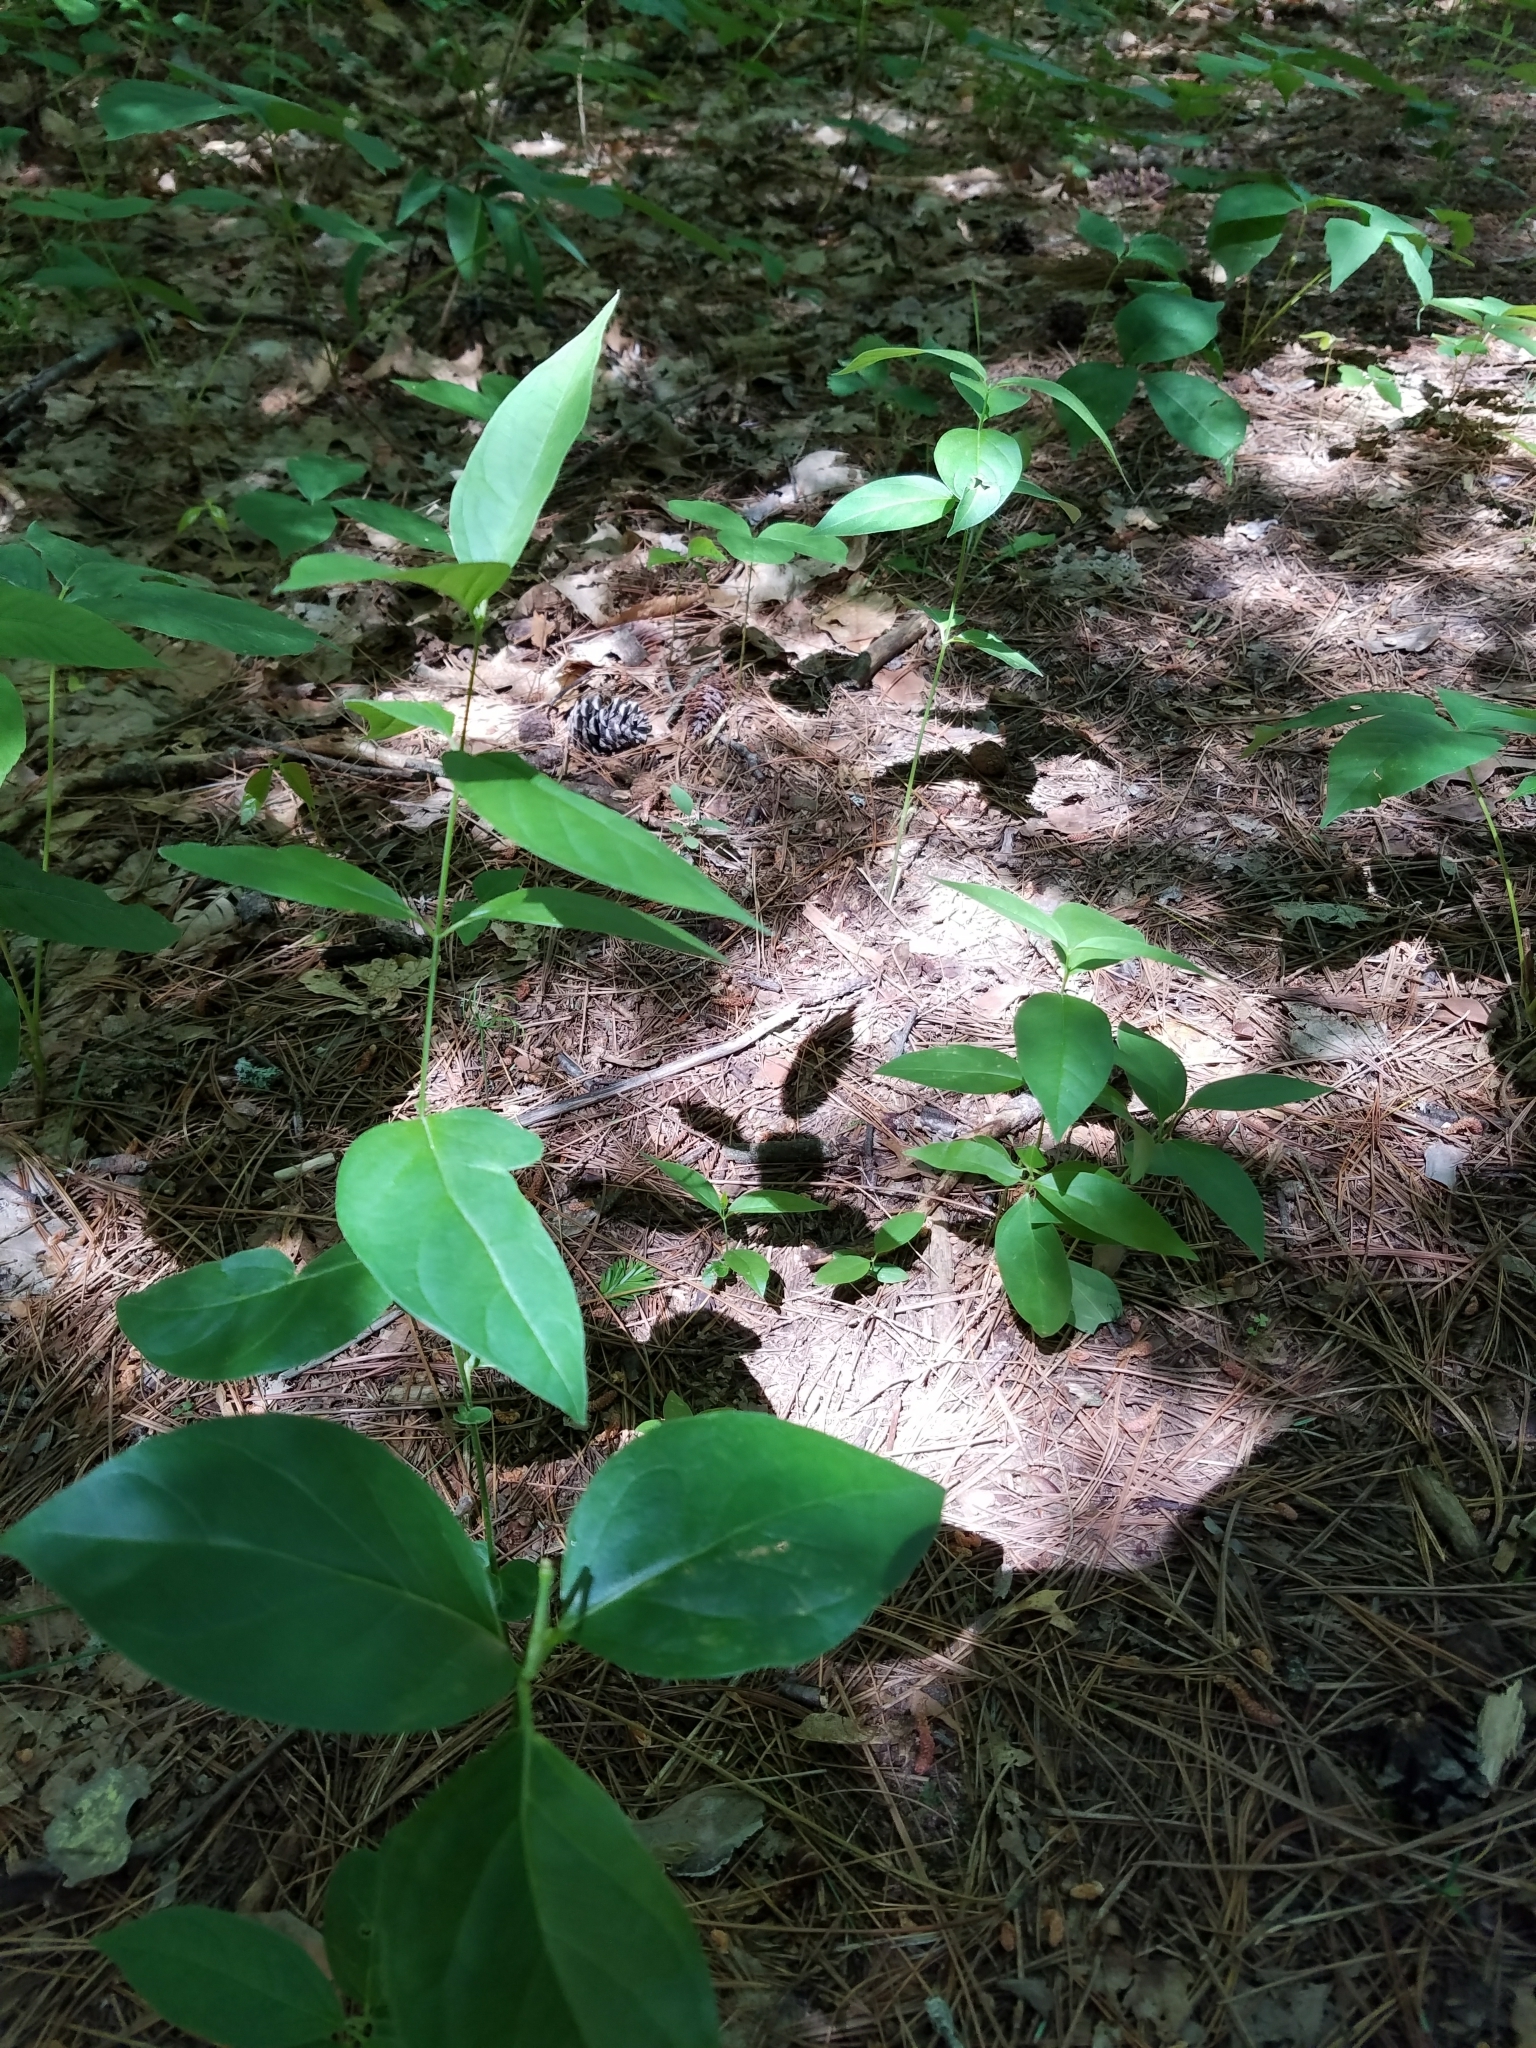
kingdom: Plantae
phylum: Tracheophyta
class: Magnoliopsida
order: Gentianales
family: Apocynaceae
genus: Vincetoxicum
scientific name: Vincetoxicum rossicum
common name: Dog-strangling vine
